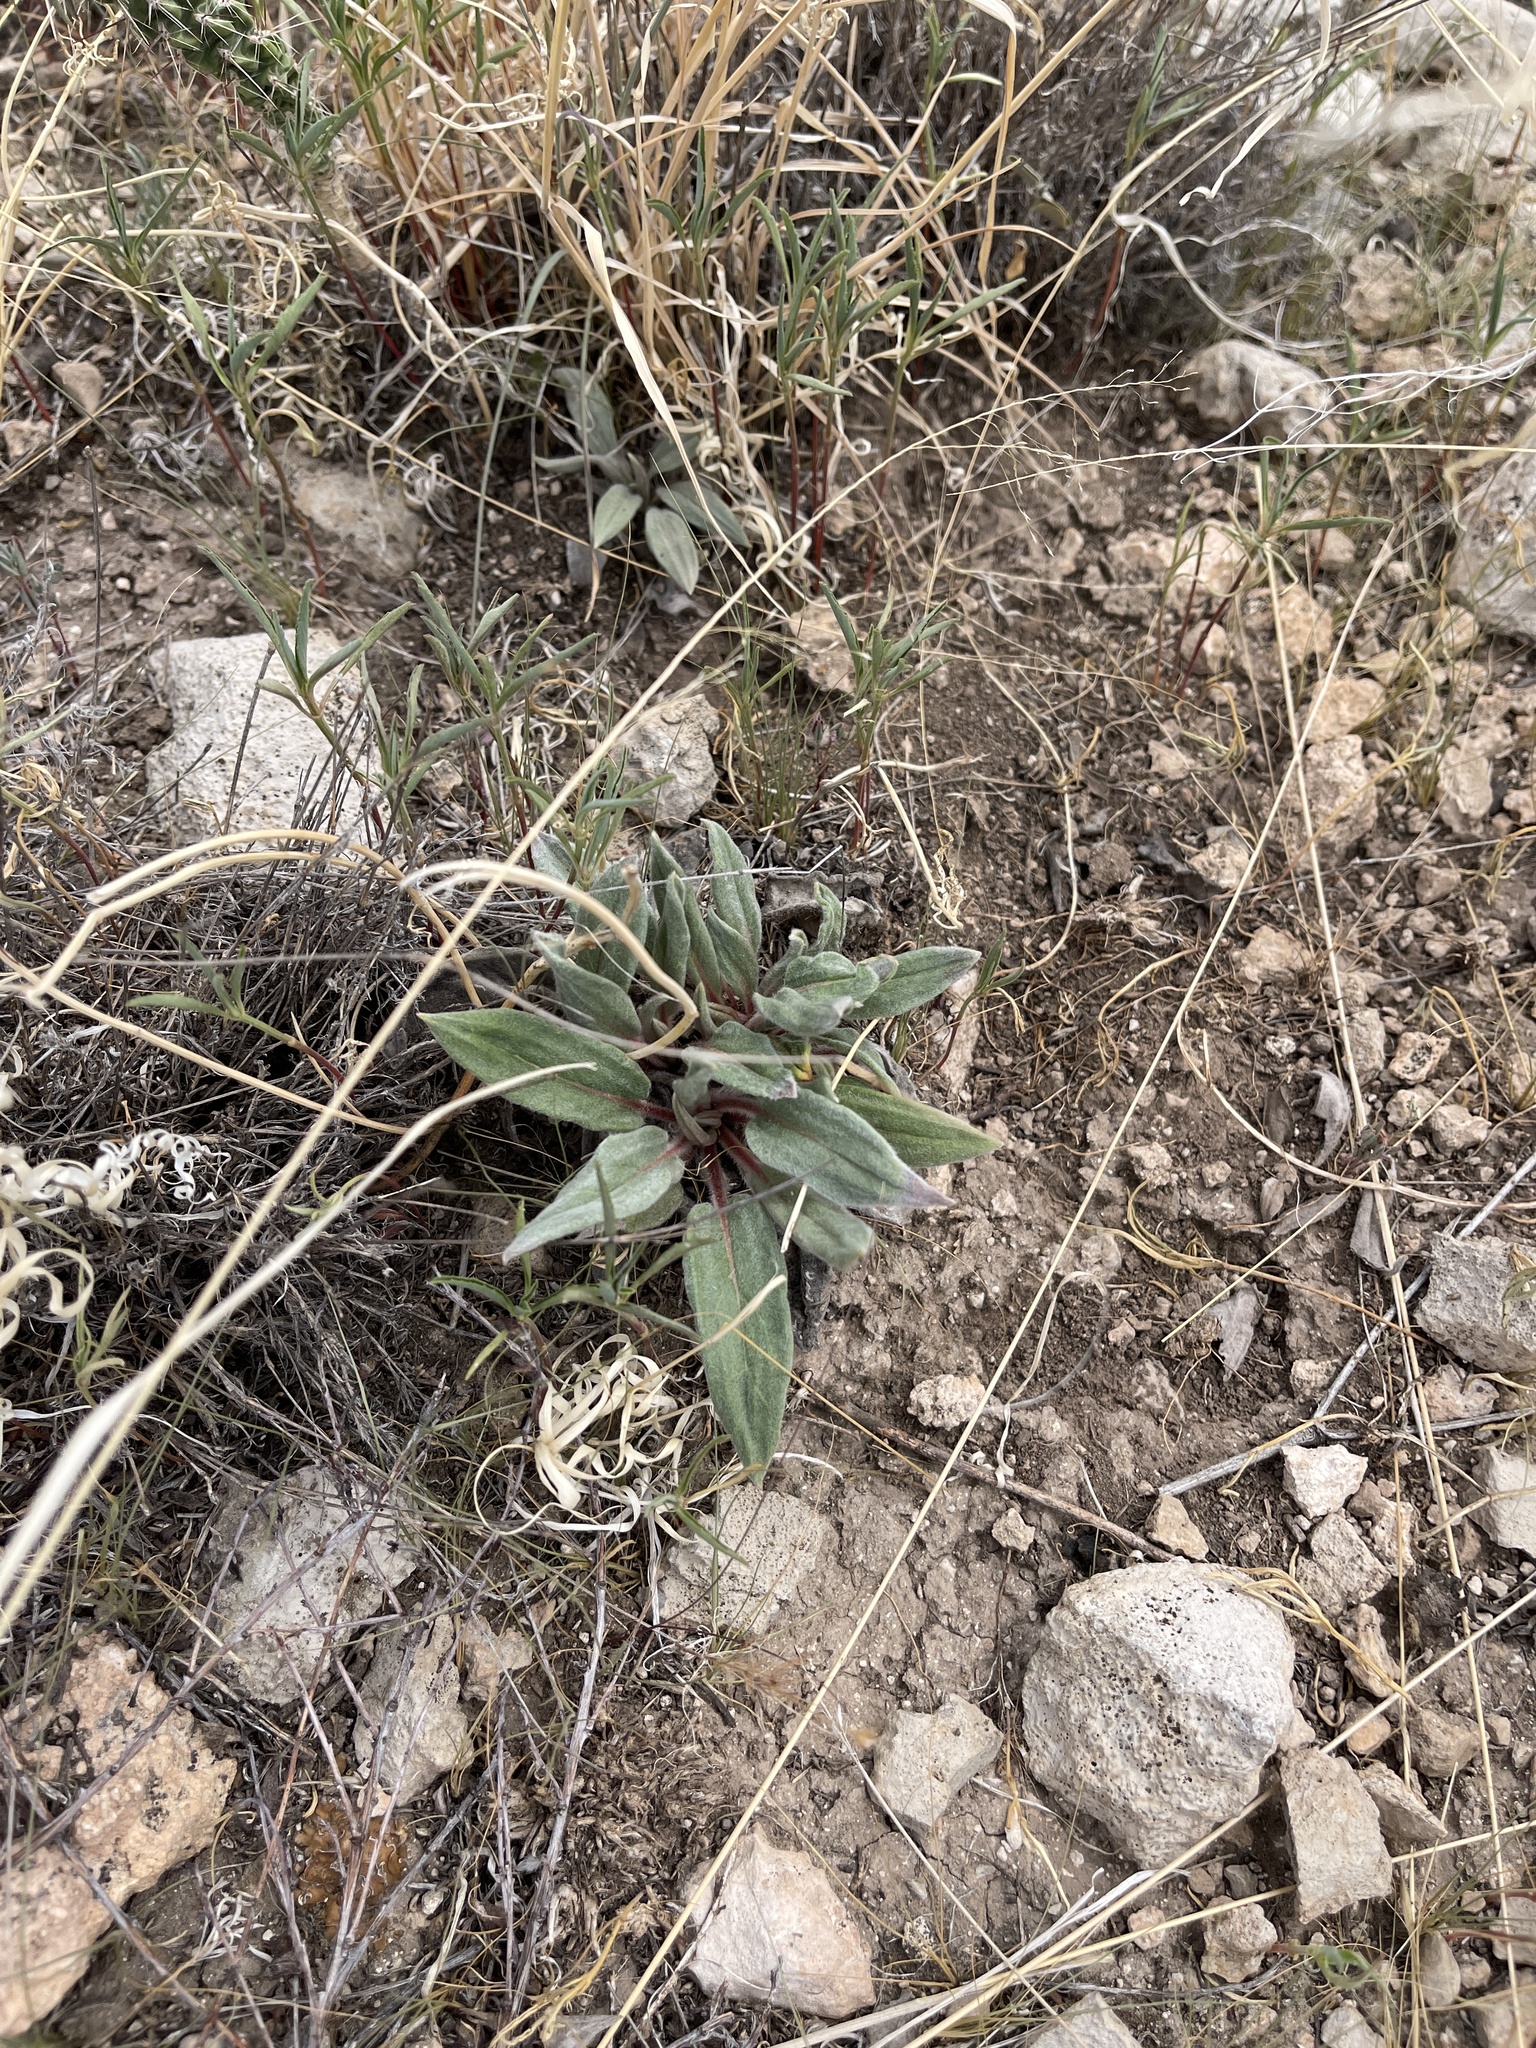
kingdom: Plantae
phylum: Tracheophyta
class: Magnoliopsida
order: Caryophyllales
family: Polygonaceae
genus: Eriogonum
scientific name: Eriogonum havardii
